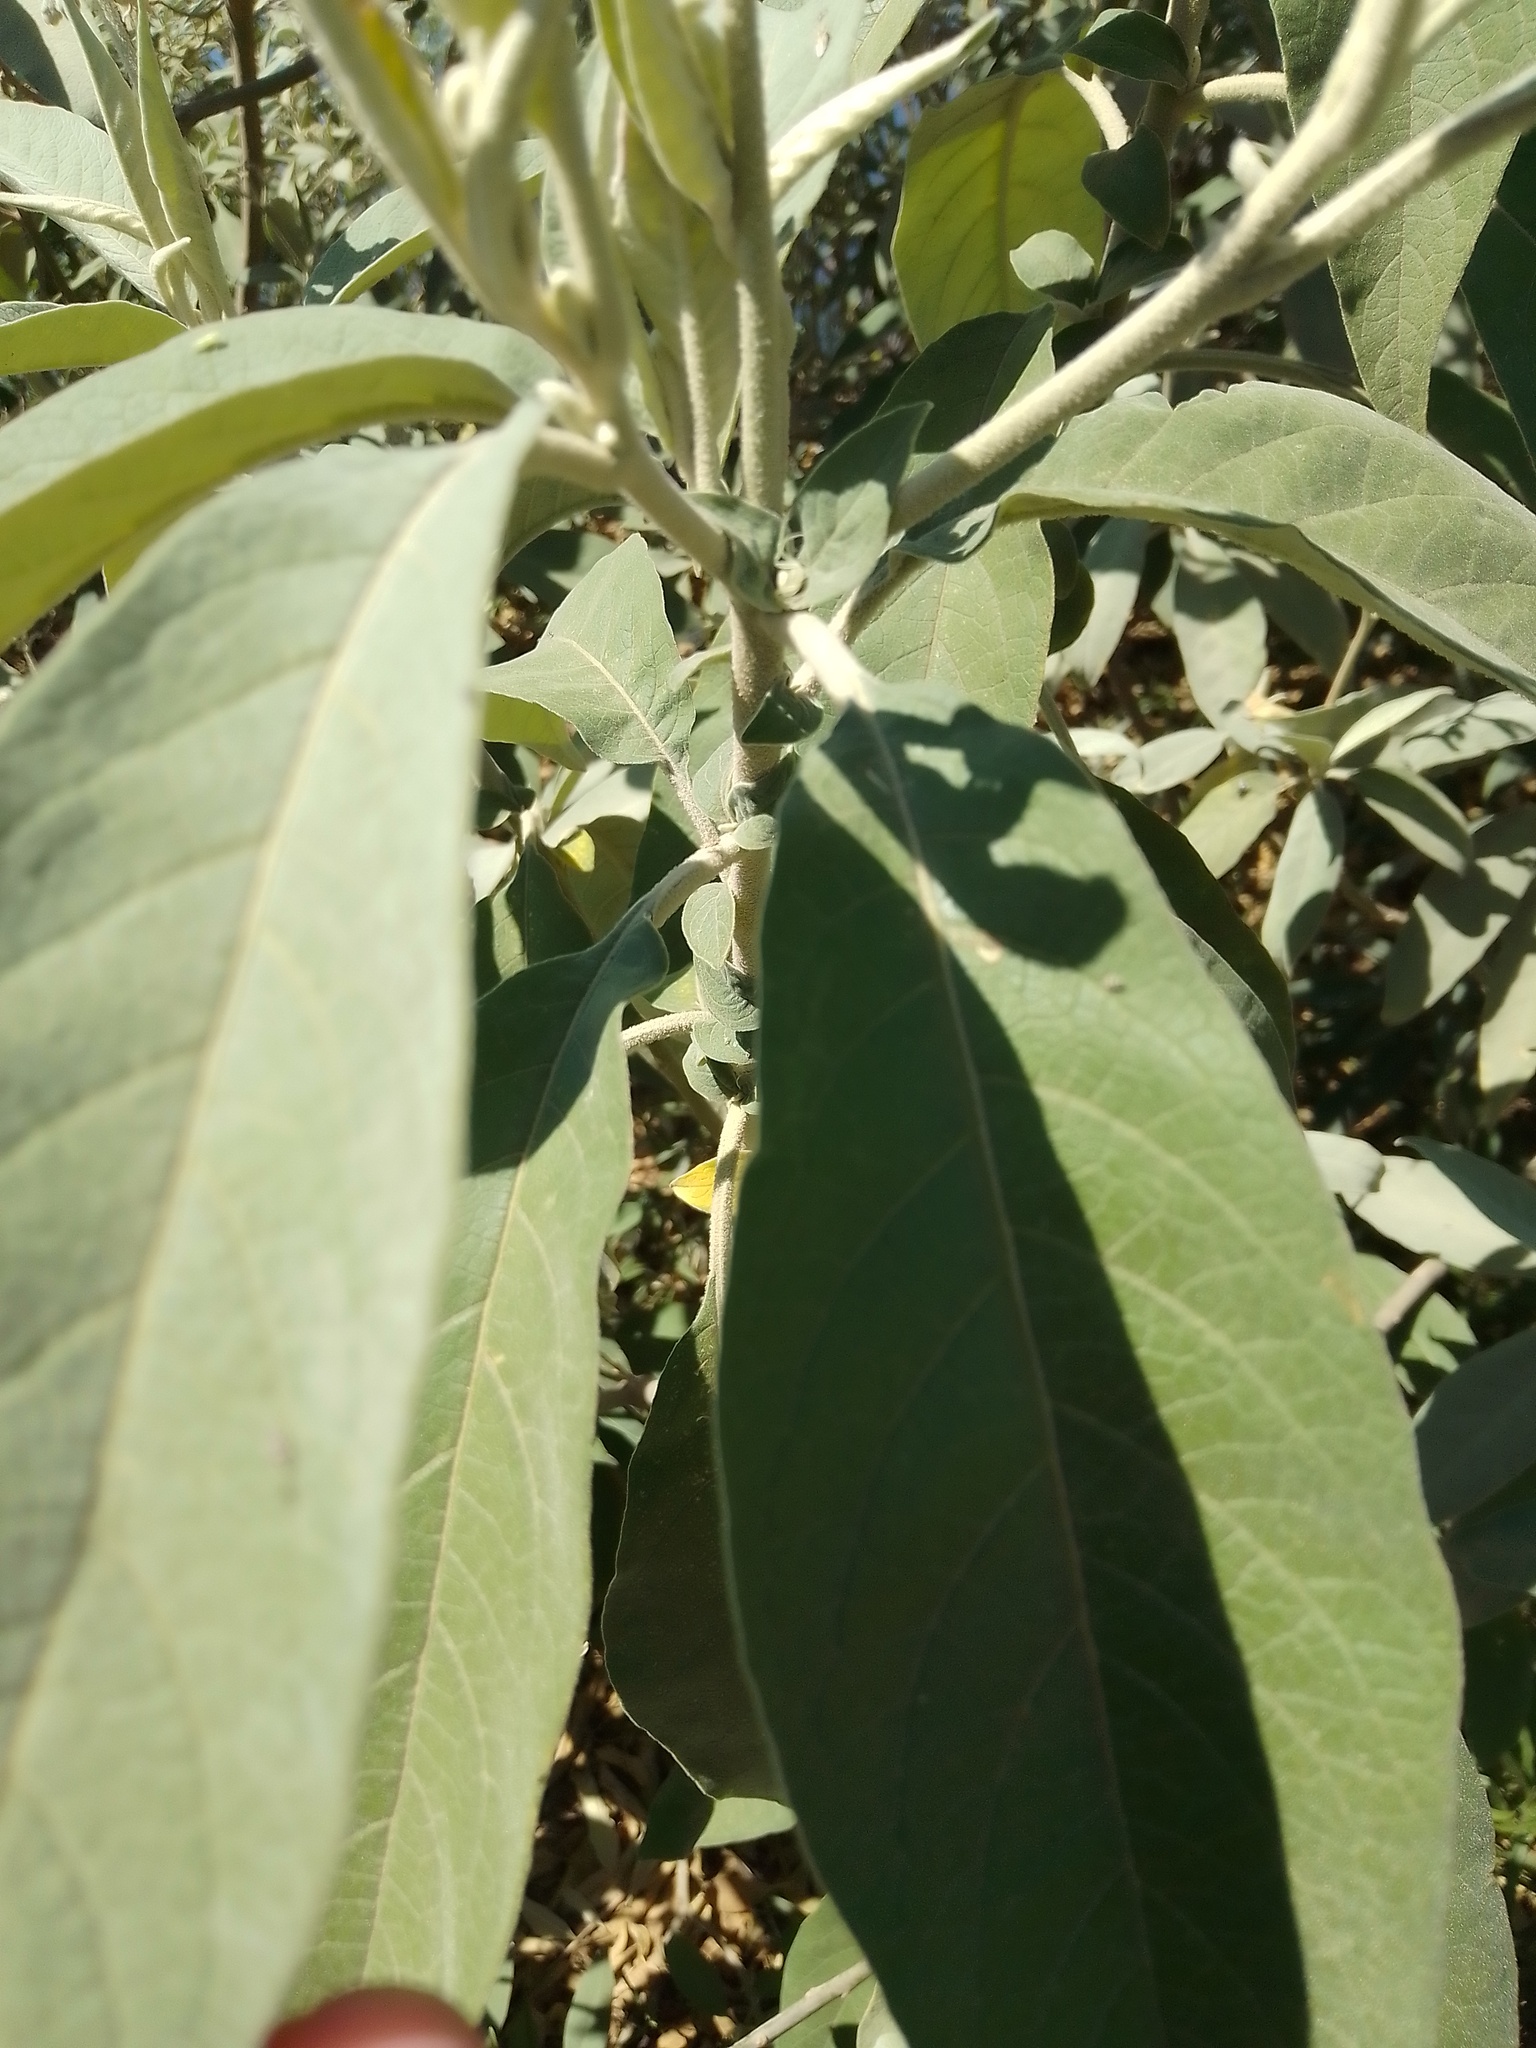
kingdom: Plantae
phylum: Tracheophyta
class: Magnoliopsida
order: Solanales
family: Solanaceae
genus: Solanum
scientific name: Solanum granulosoleprosum
